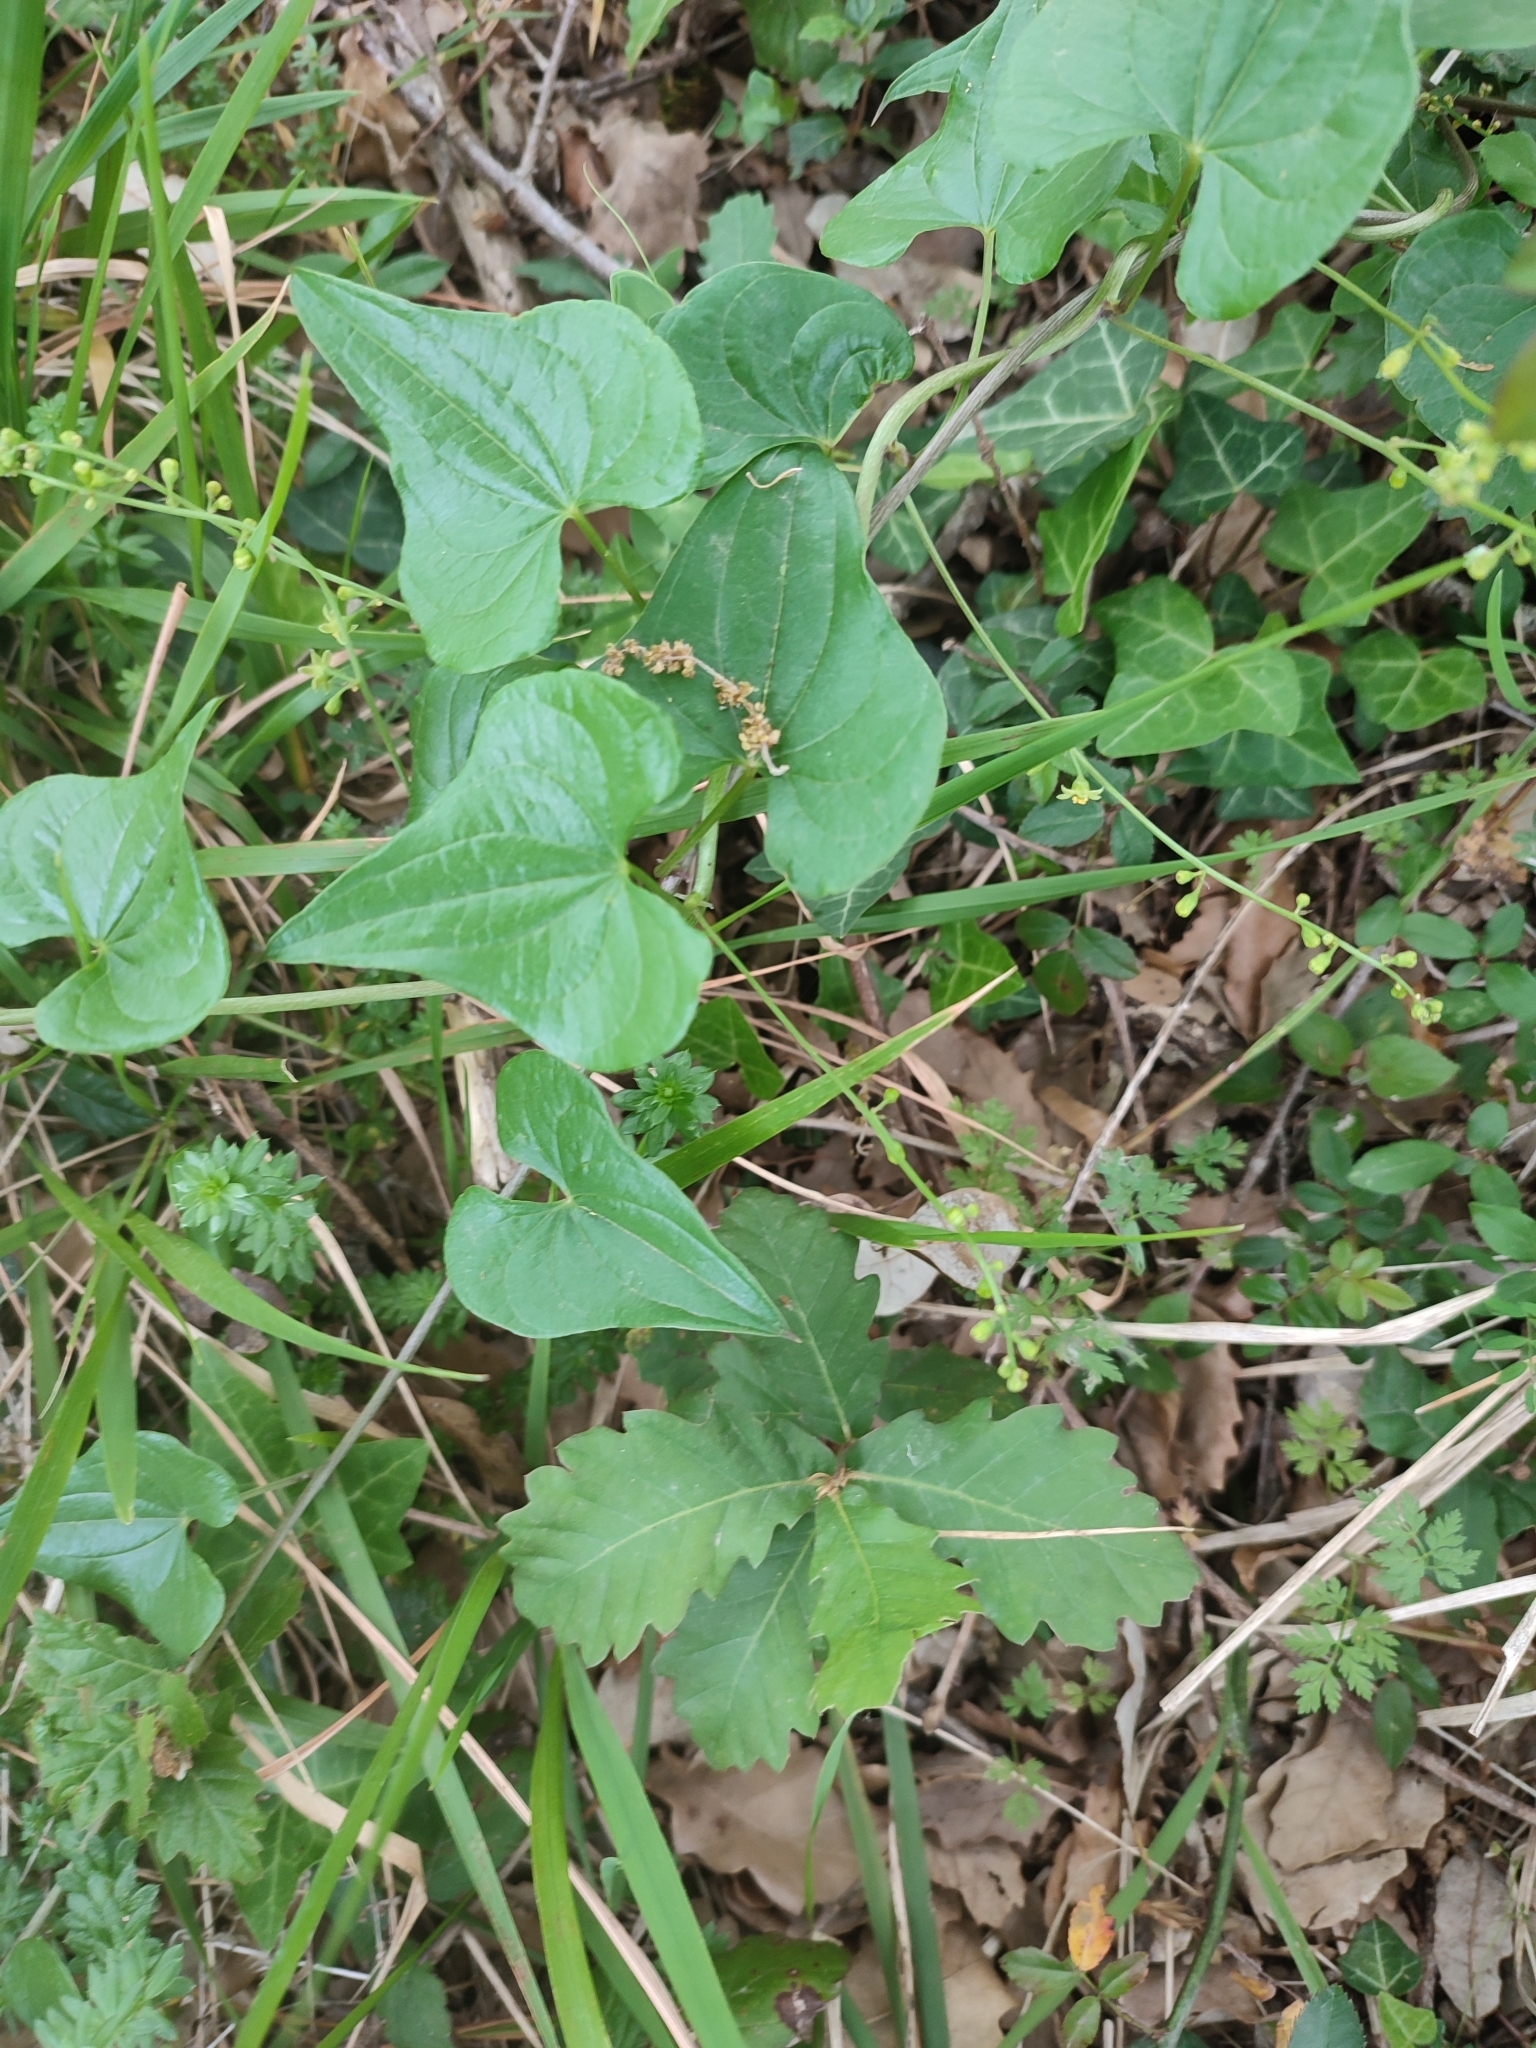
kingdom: Plantae
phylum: Tracheophyta
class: Liliopsida
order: Dioscoreales
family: Dioscoreaceae
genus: Dioscorea
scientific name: Dioscorea communis
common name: Black-bindweed
